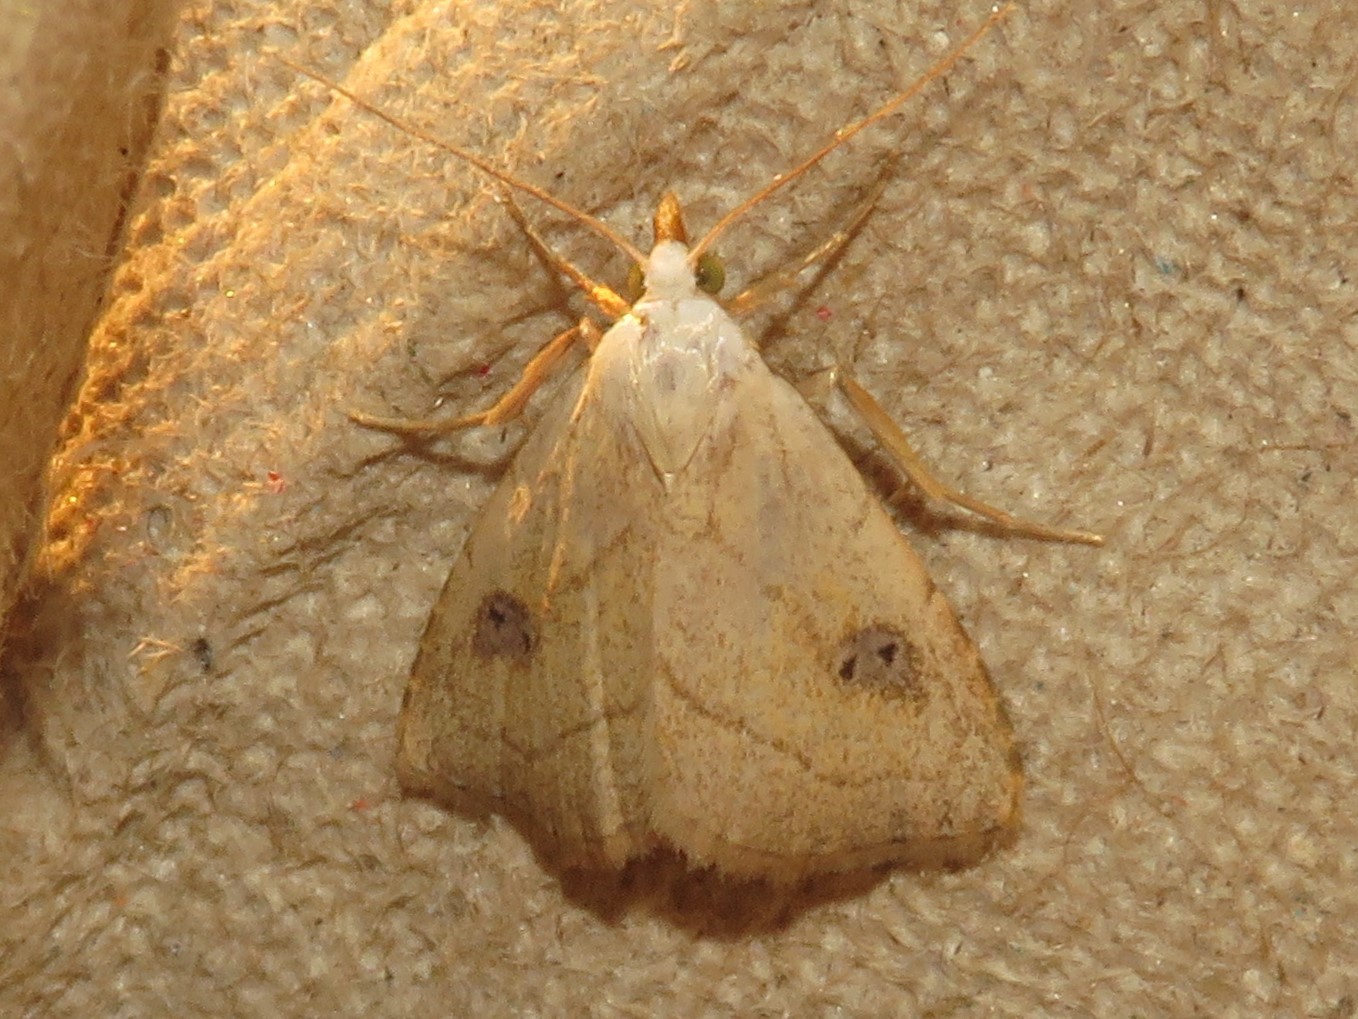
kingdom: Animalia
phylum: Arthropoda
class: Insecta
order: Lepidoptera
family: Erebidae
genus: Rivula
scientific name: Rivula propinqualis
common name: Spotted grass moth
